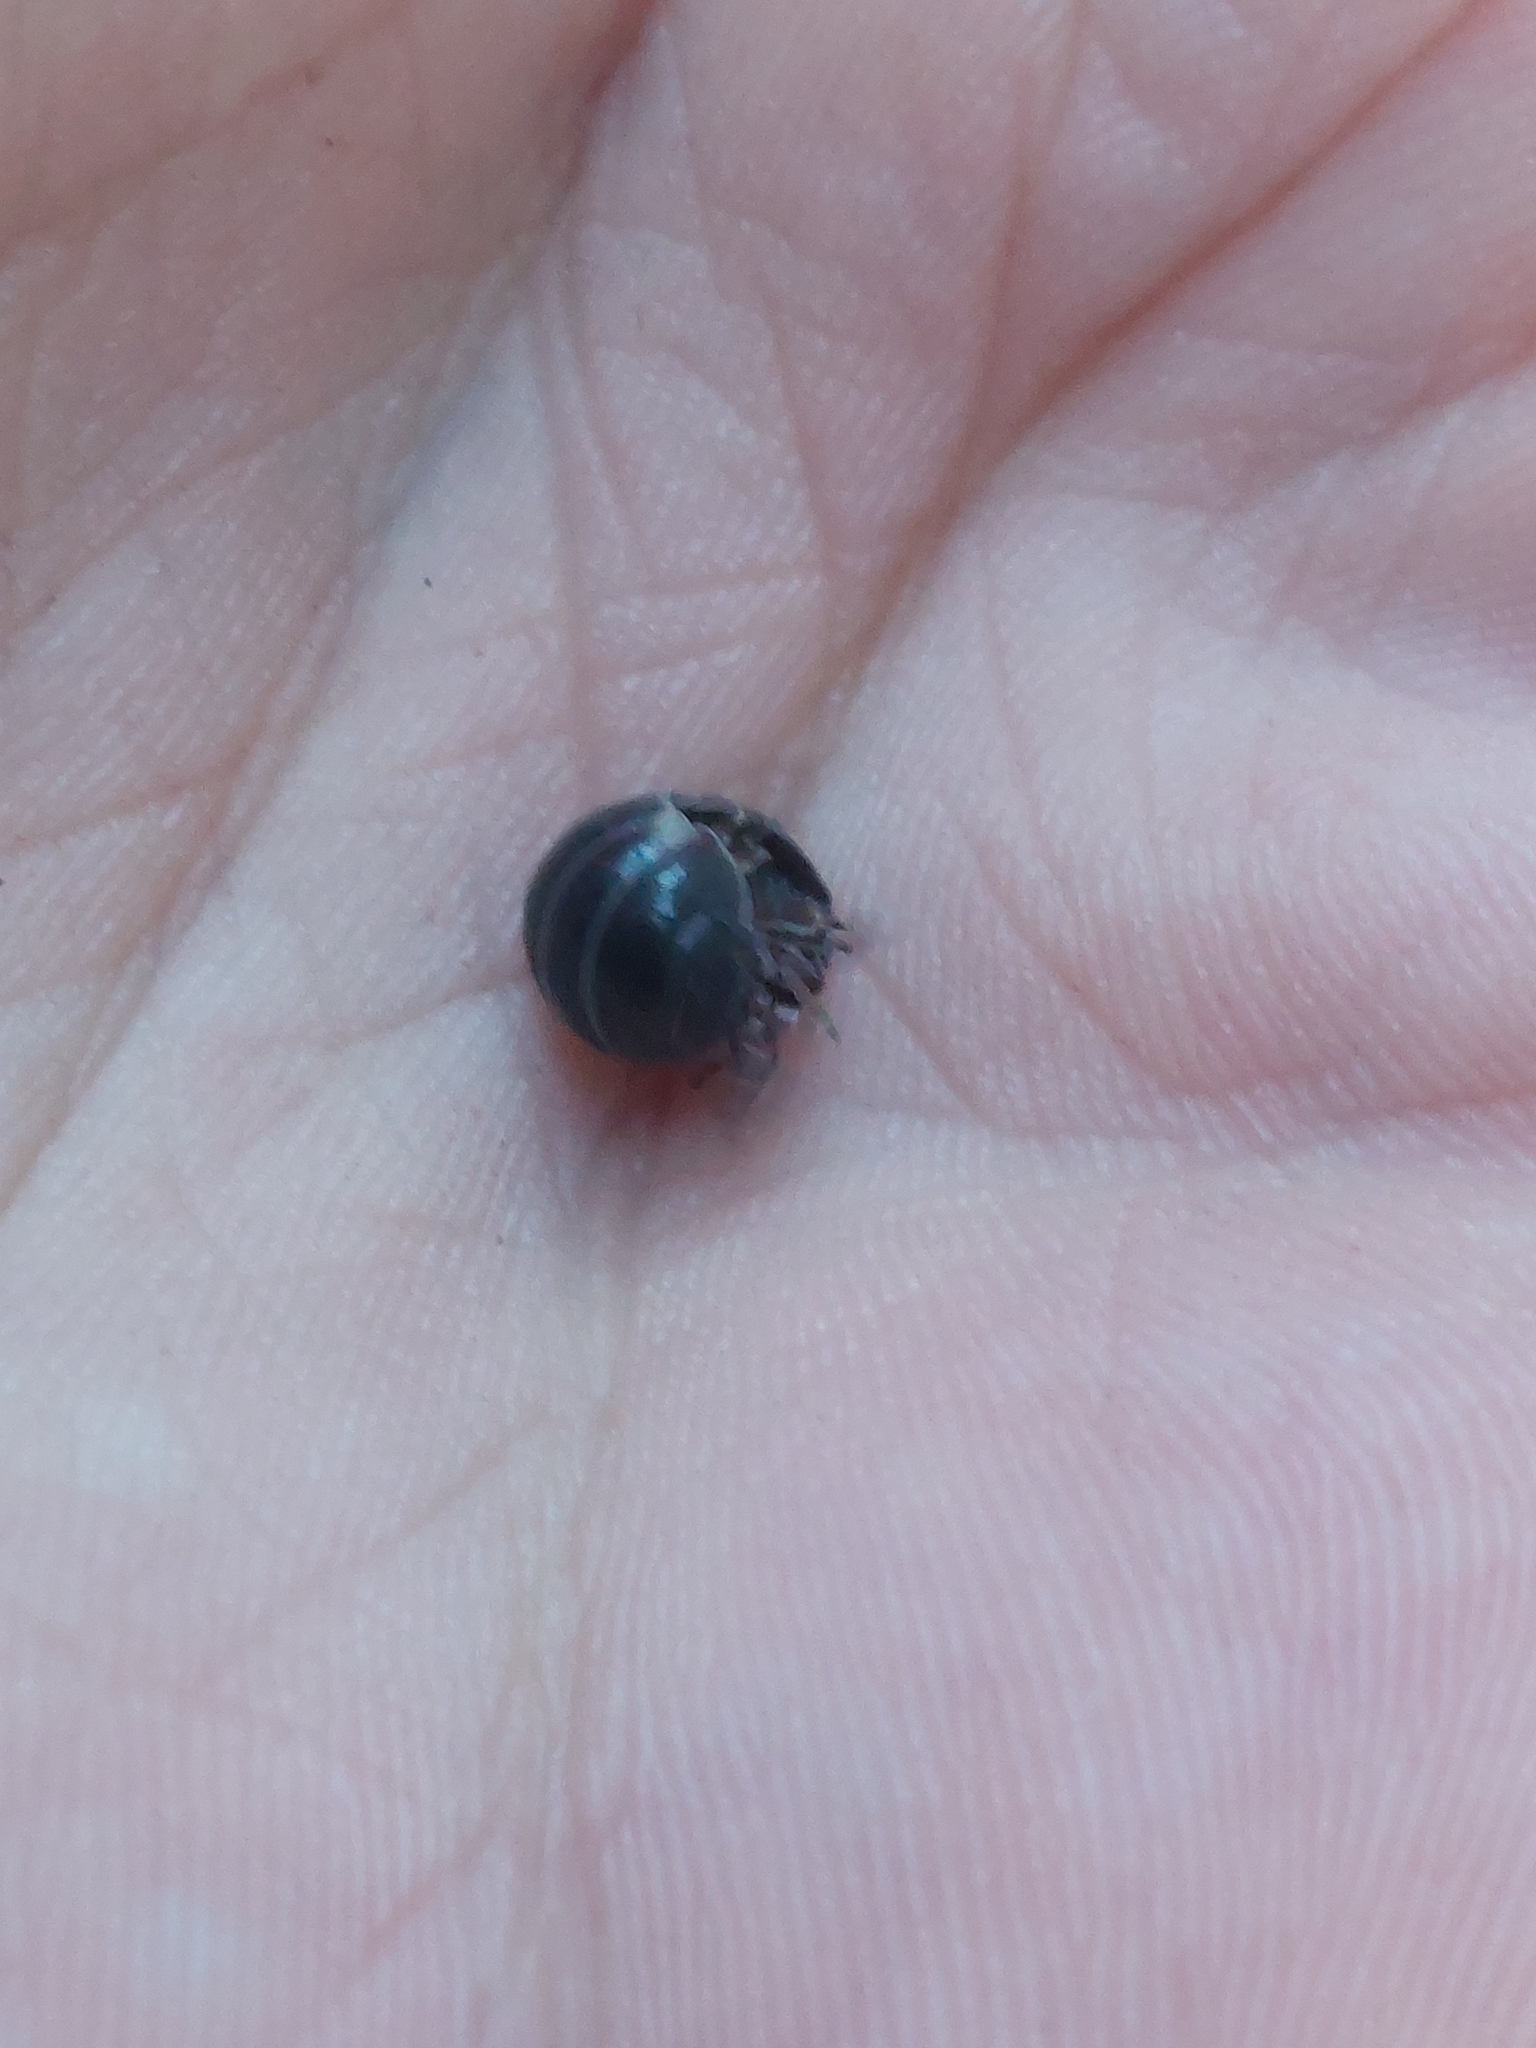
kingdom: Animalia
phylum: Arthropoda
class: Malacostraca
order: Isopoda
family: Armadillidiidae
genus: Armadillidium
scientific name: Armadillidium vulgare
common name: Common pill woodlouse
